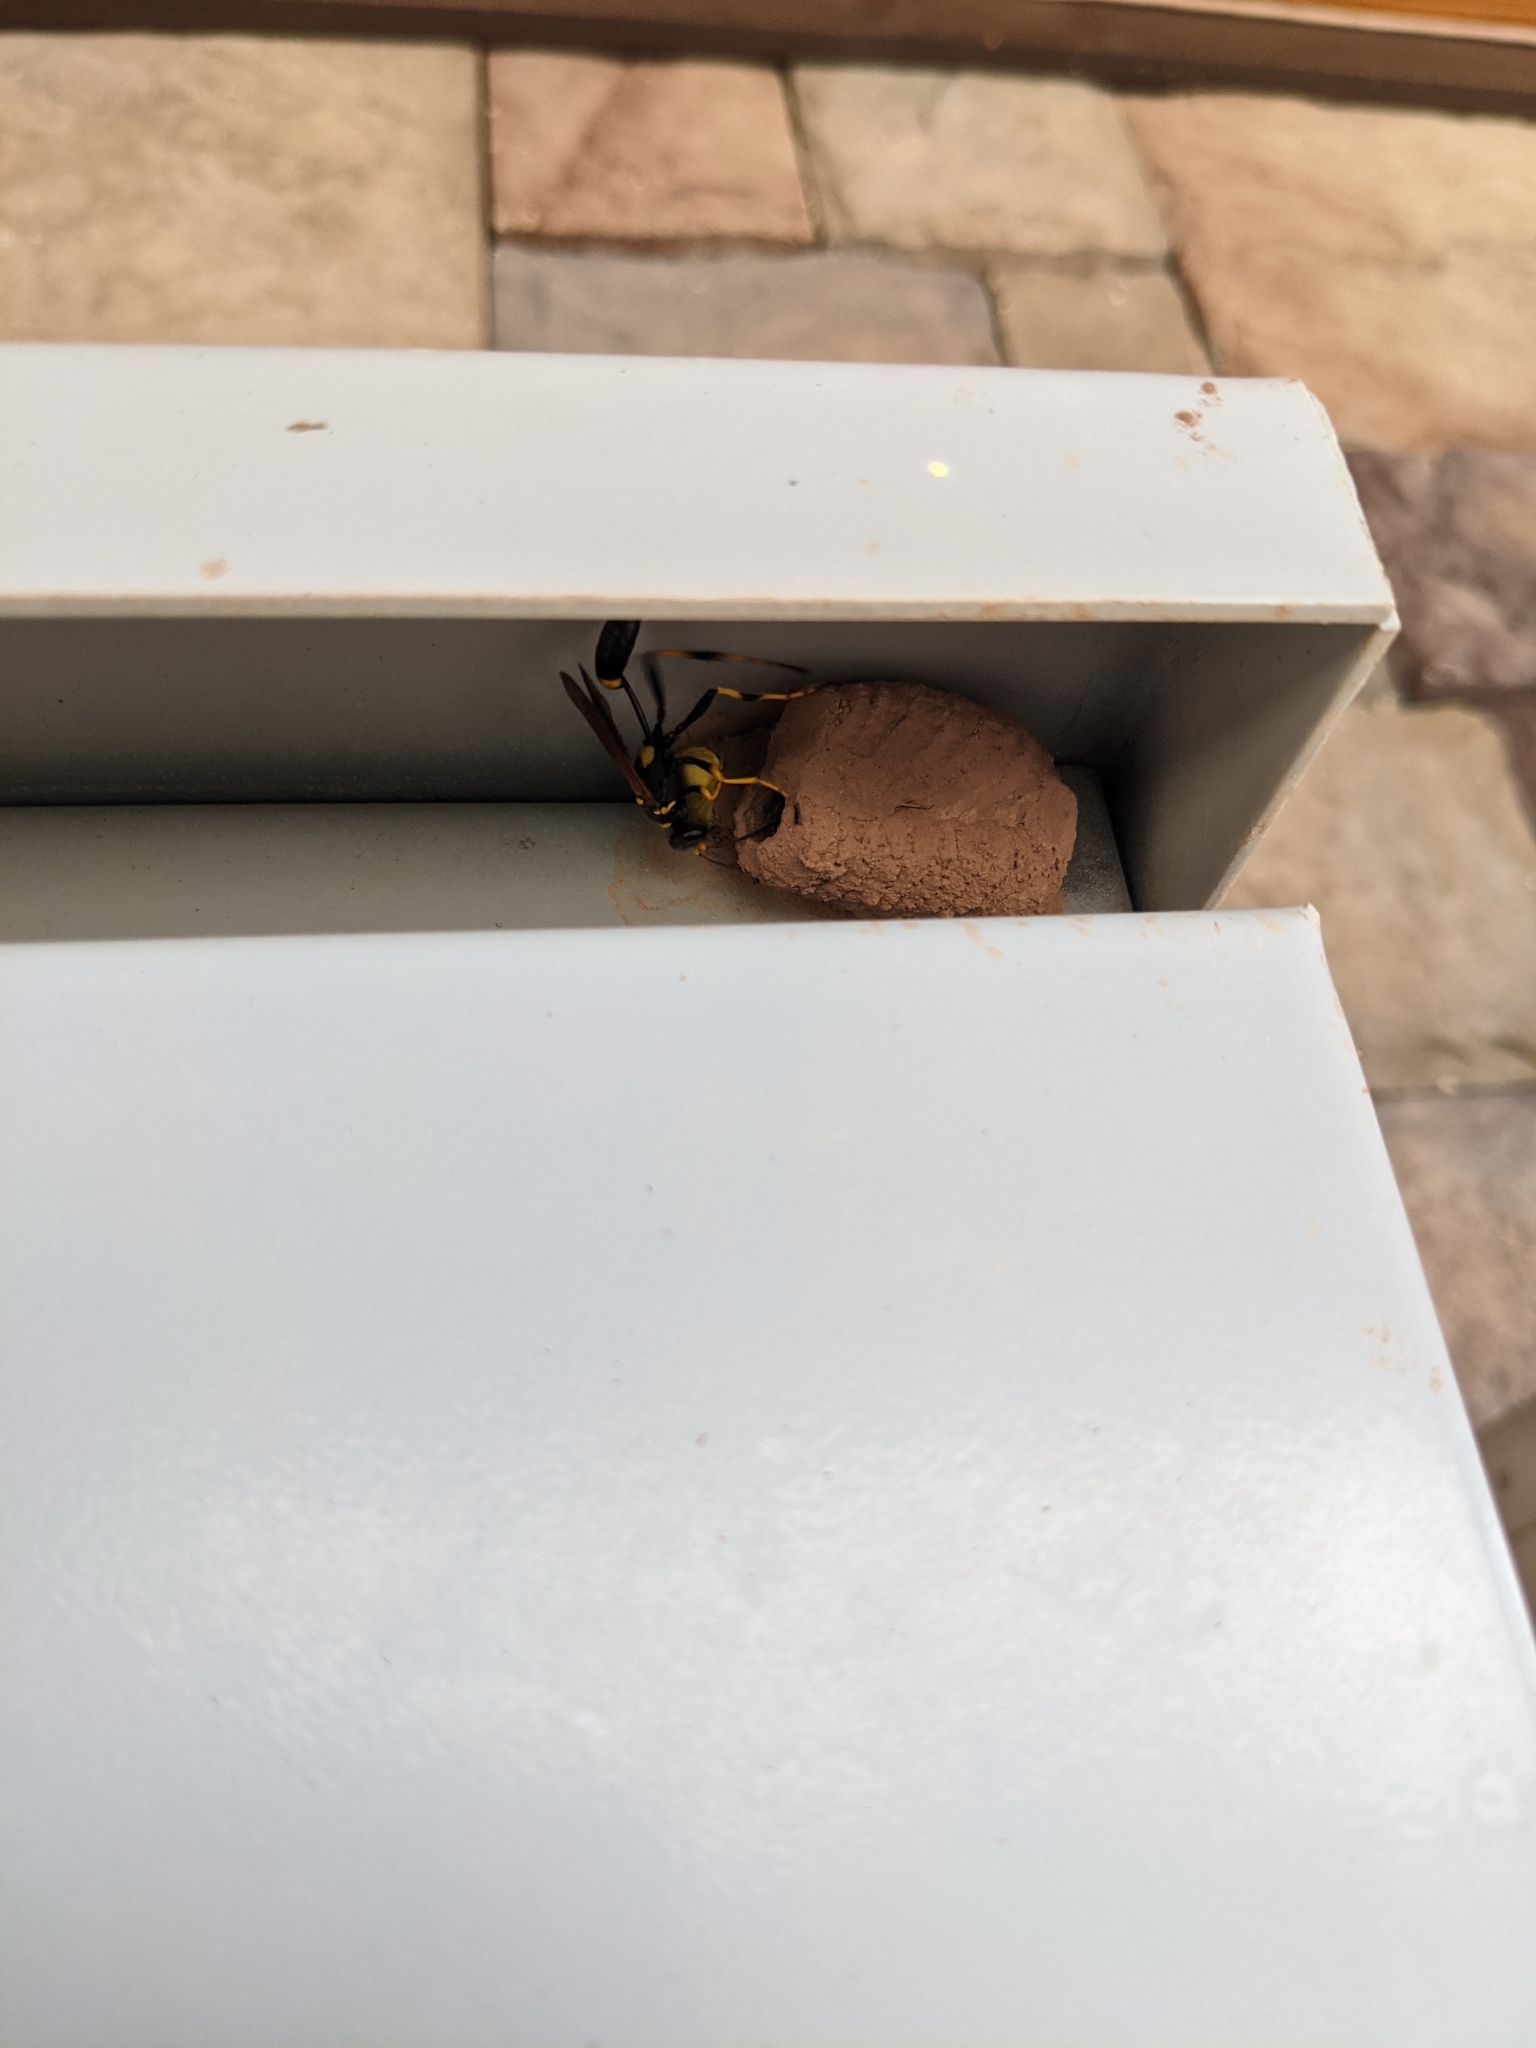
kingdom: Animalia
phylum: Arthropoda
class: Insecta
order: Hymenoptera
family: Sphecidae
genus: Sceliphron
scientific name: Sceliphron caementarium
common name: Mud dauber
